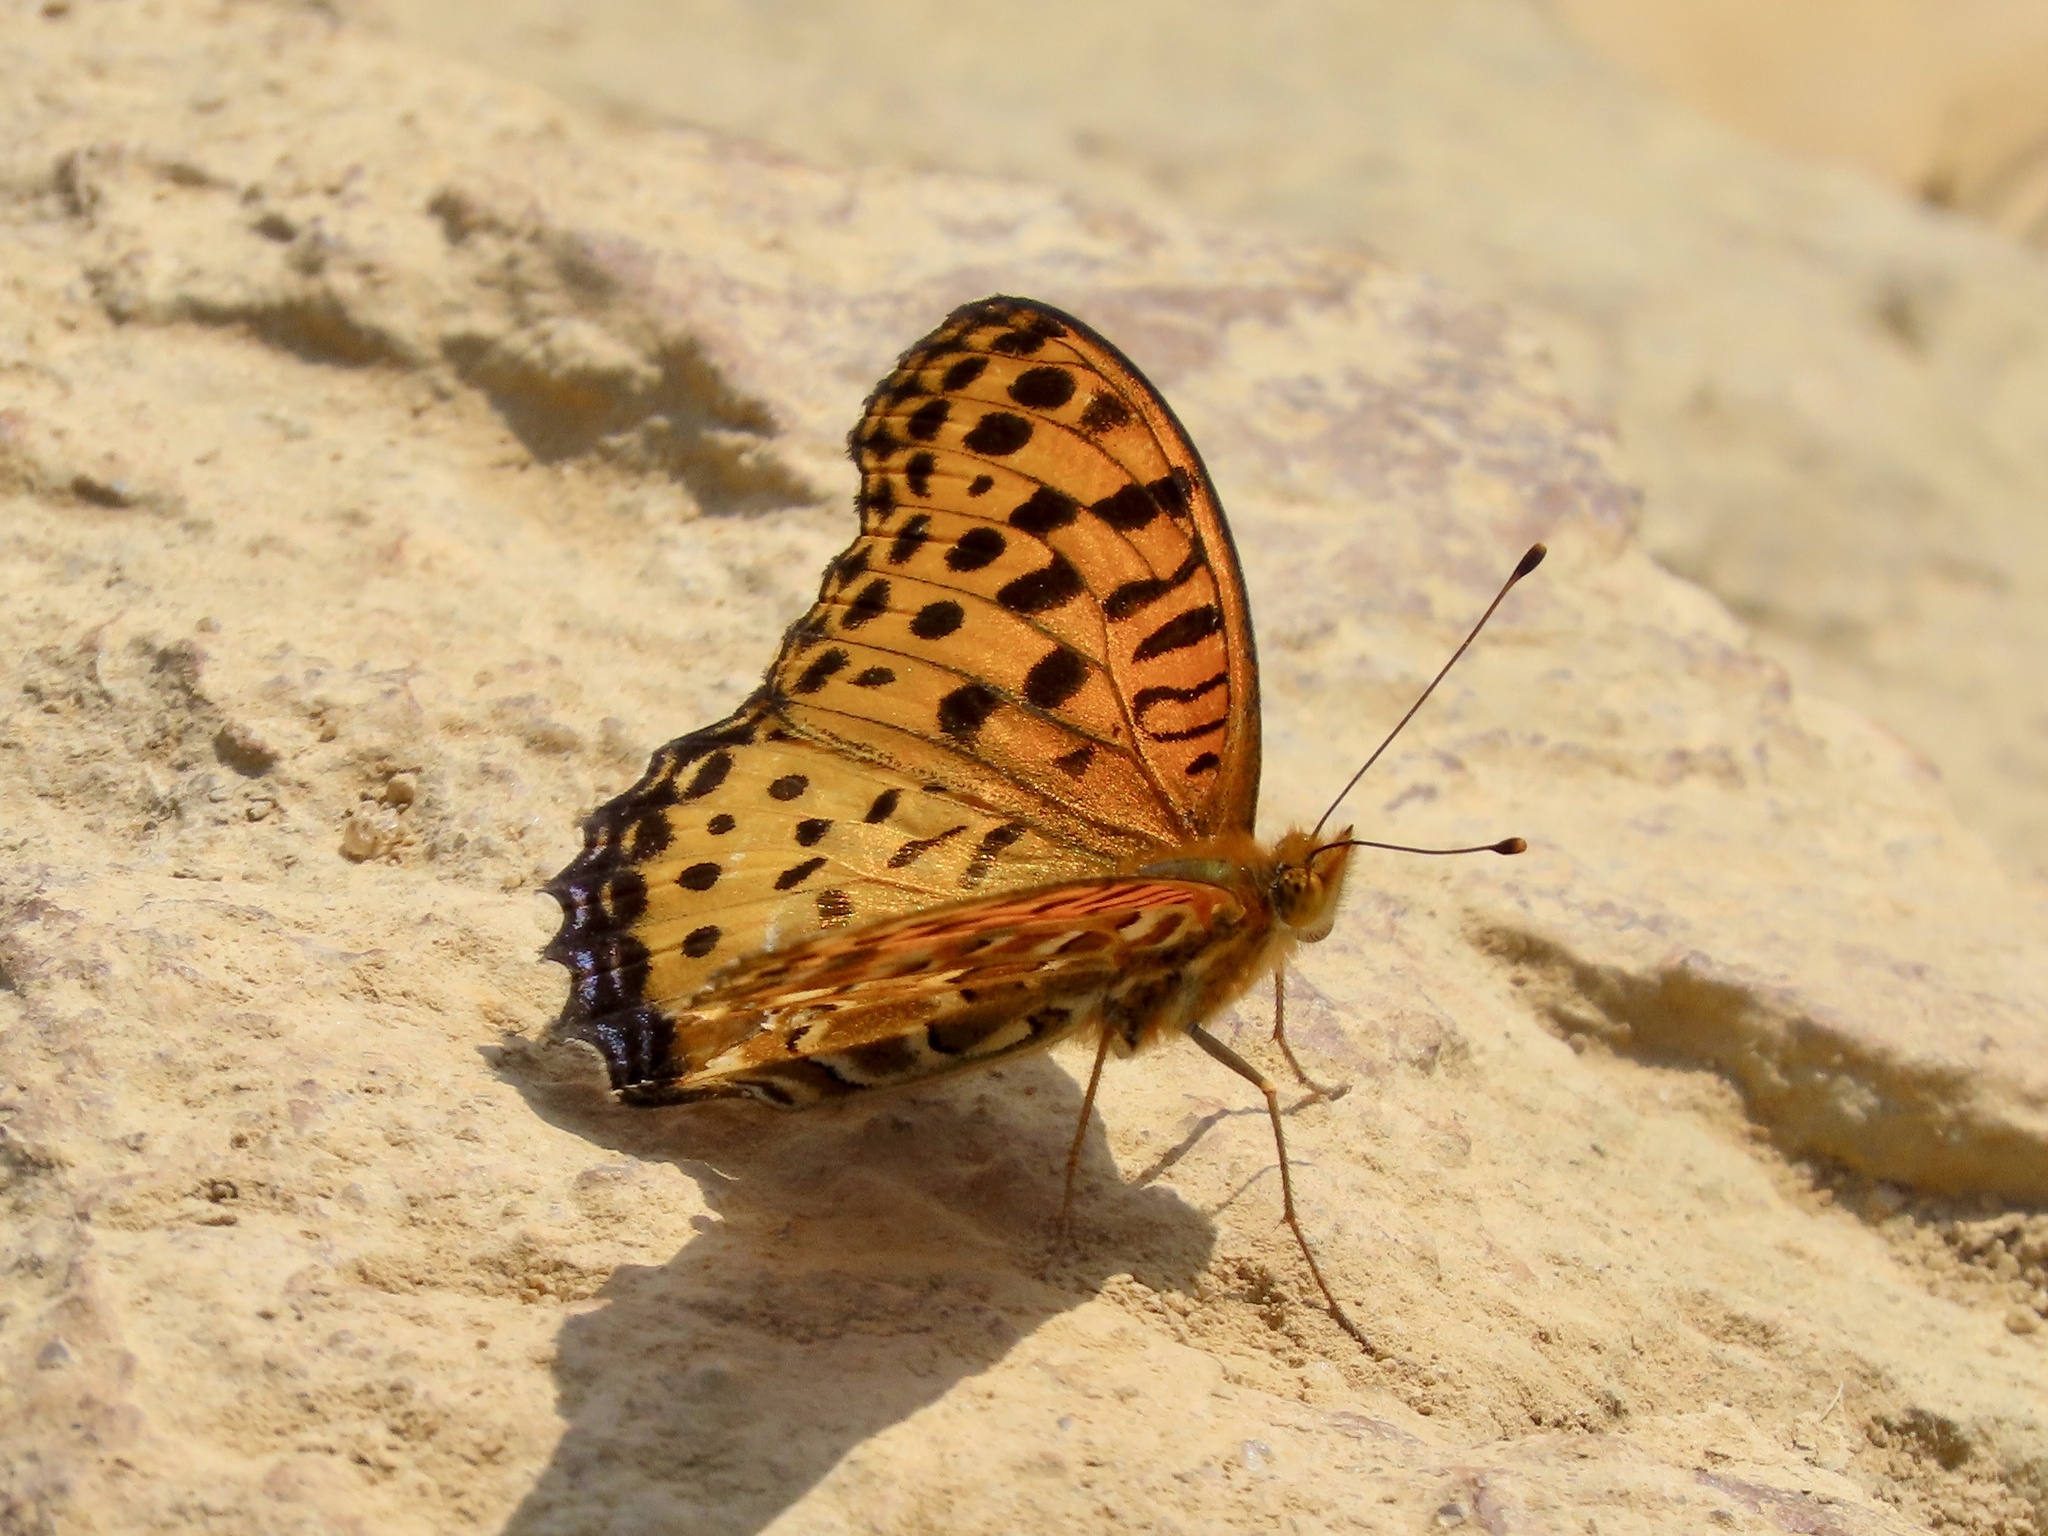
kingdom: Animalia
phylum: Arthropoda
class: Insecta
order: Lepidoptera
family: Nymphalidae
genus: Argynnis
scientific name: Argynnis hyperbius
